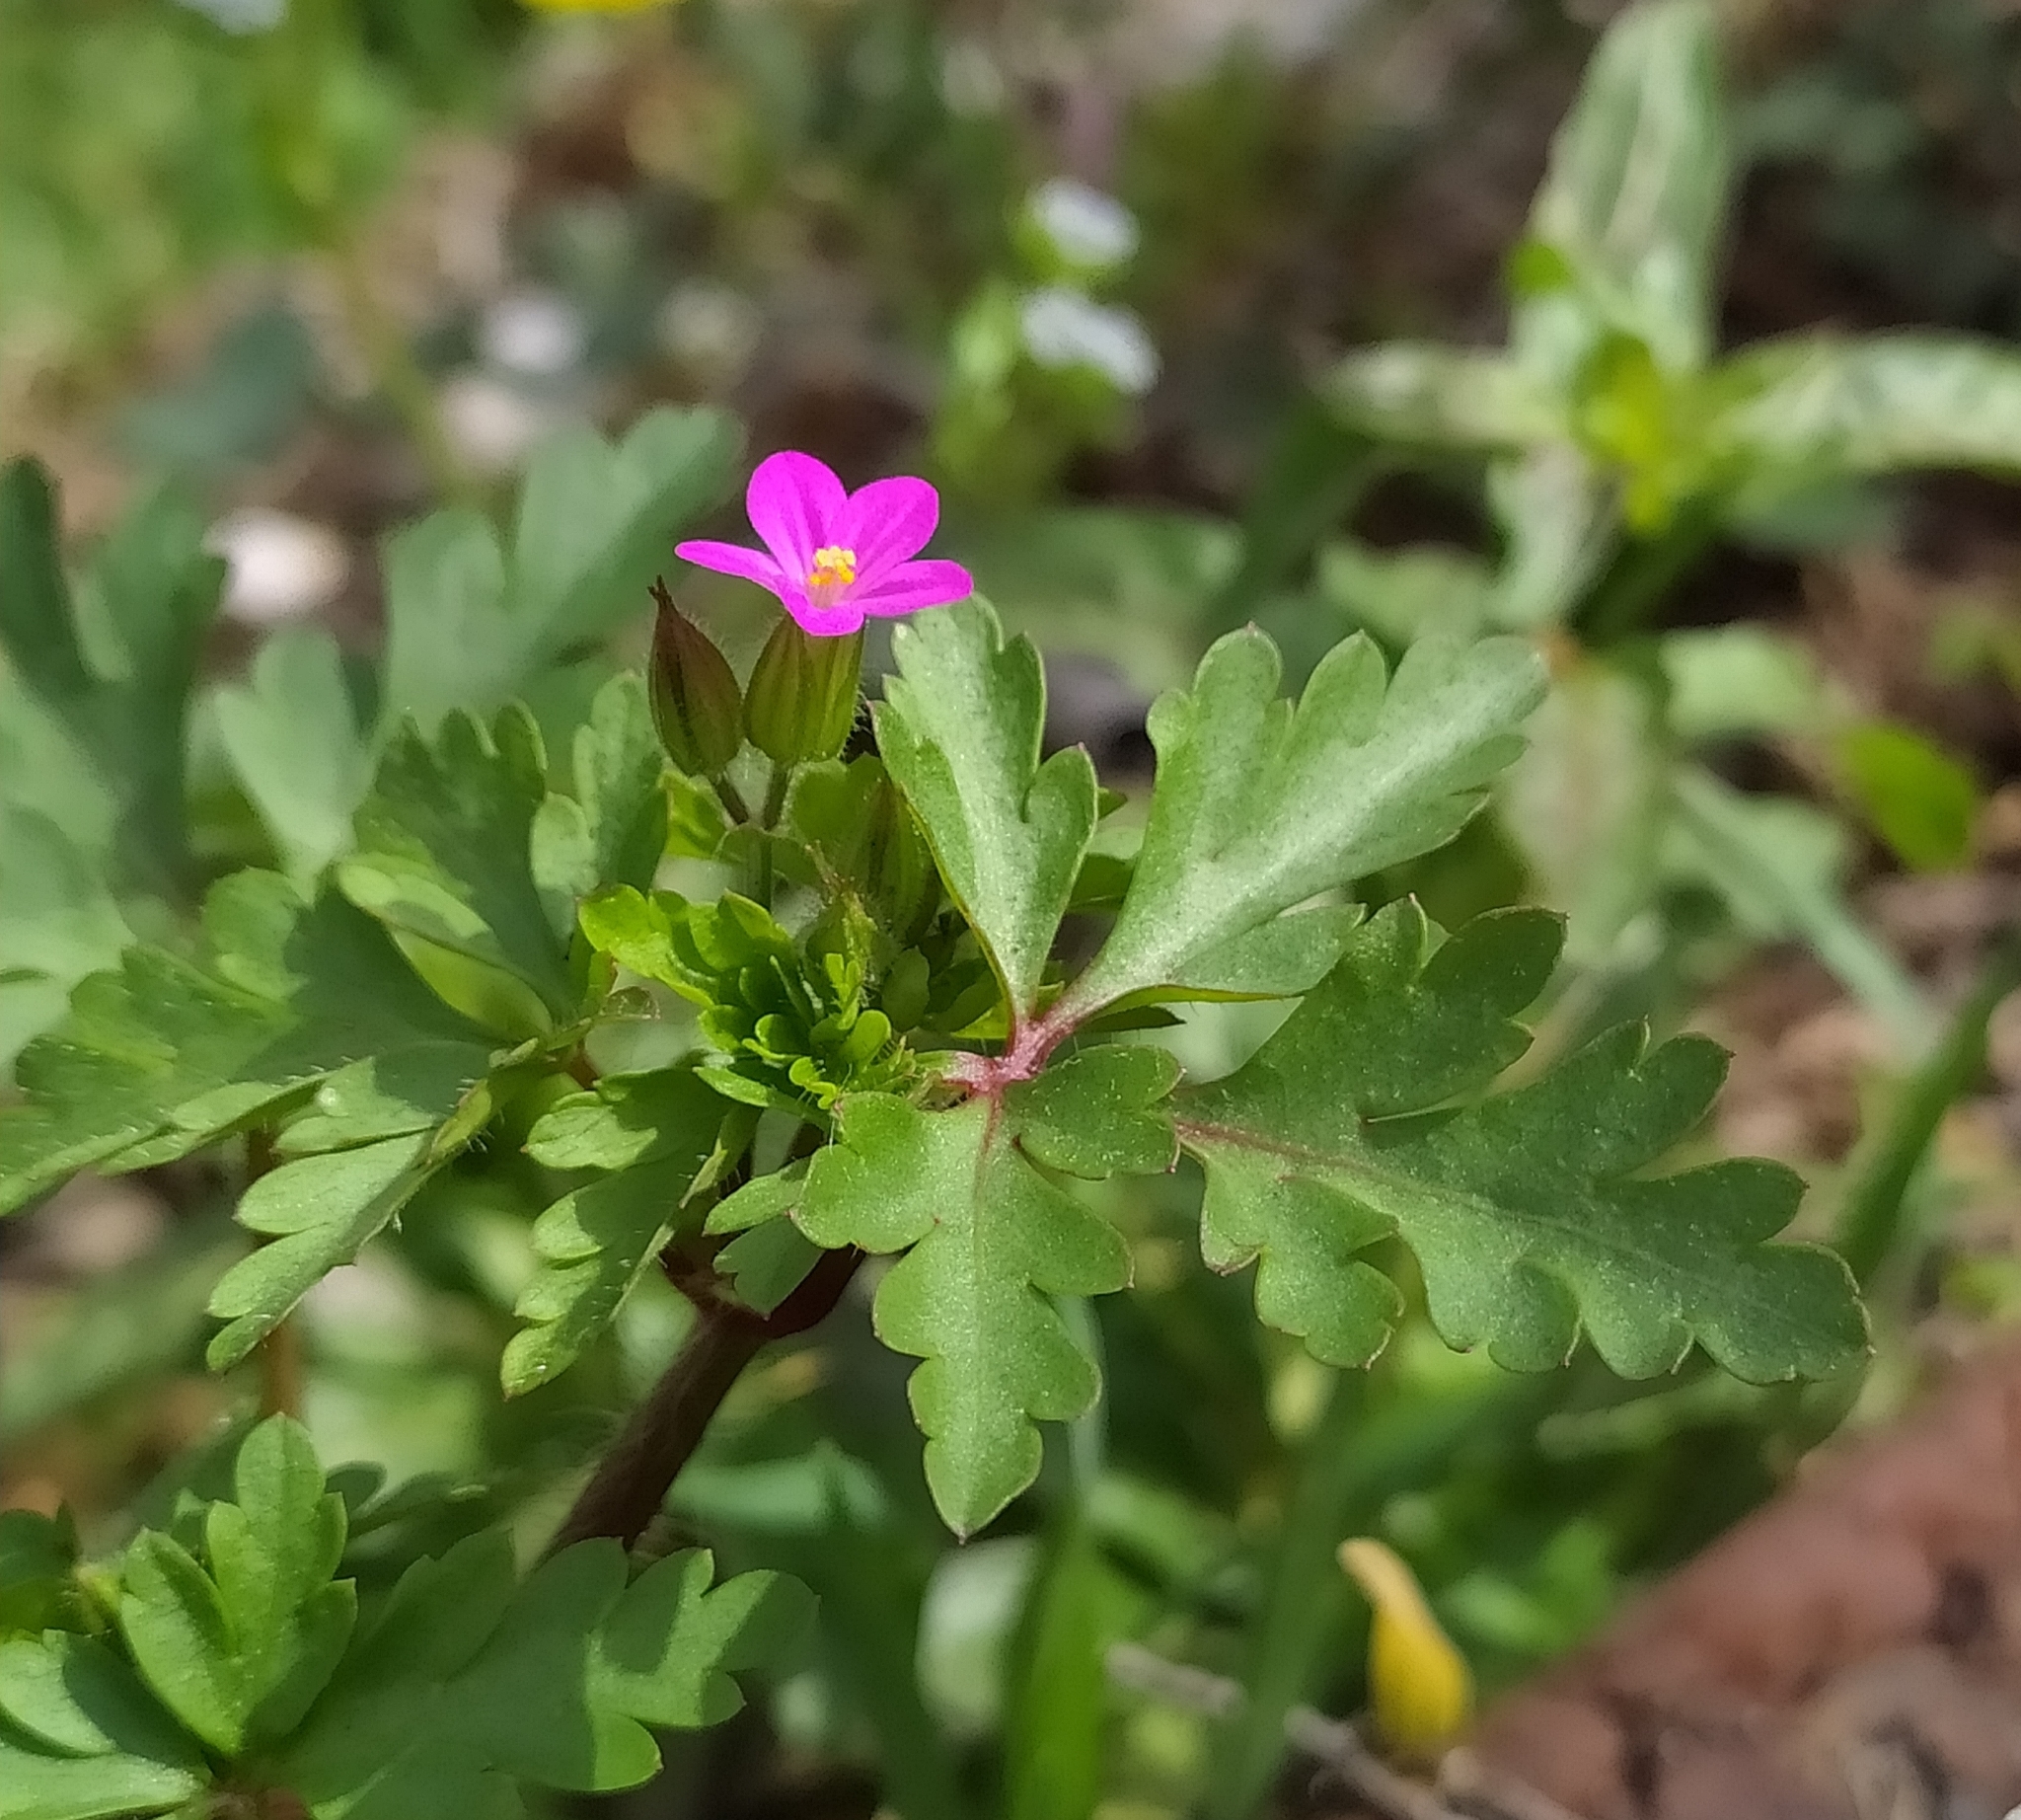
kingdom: Plantae
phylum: Tracheophyta
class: Magnoliopsida
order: Geraniales
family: Geraniaceae
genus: Geranium
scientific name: Geranium purpureum
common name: Little-robin
